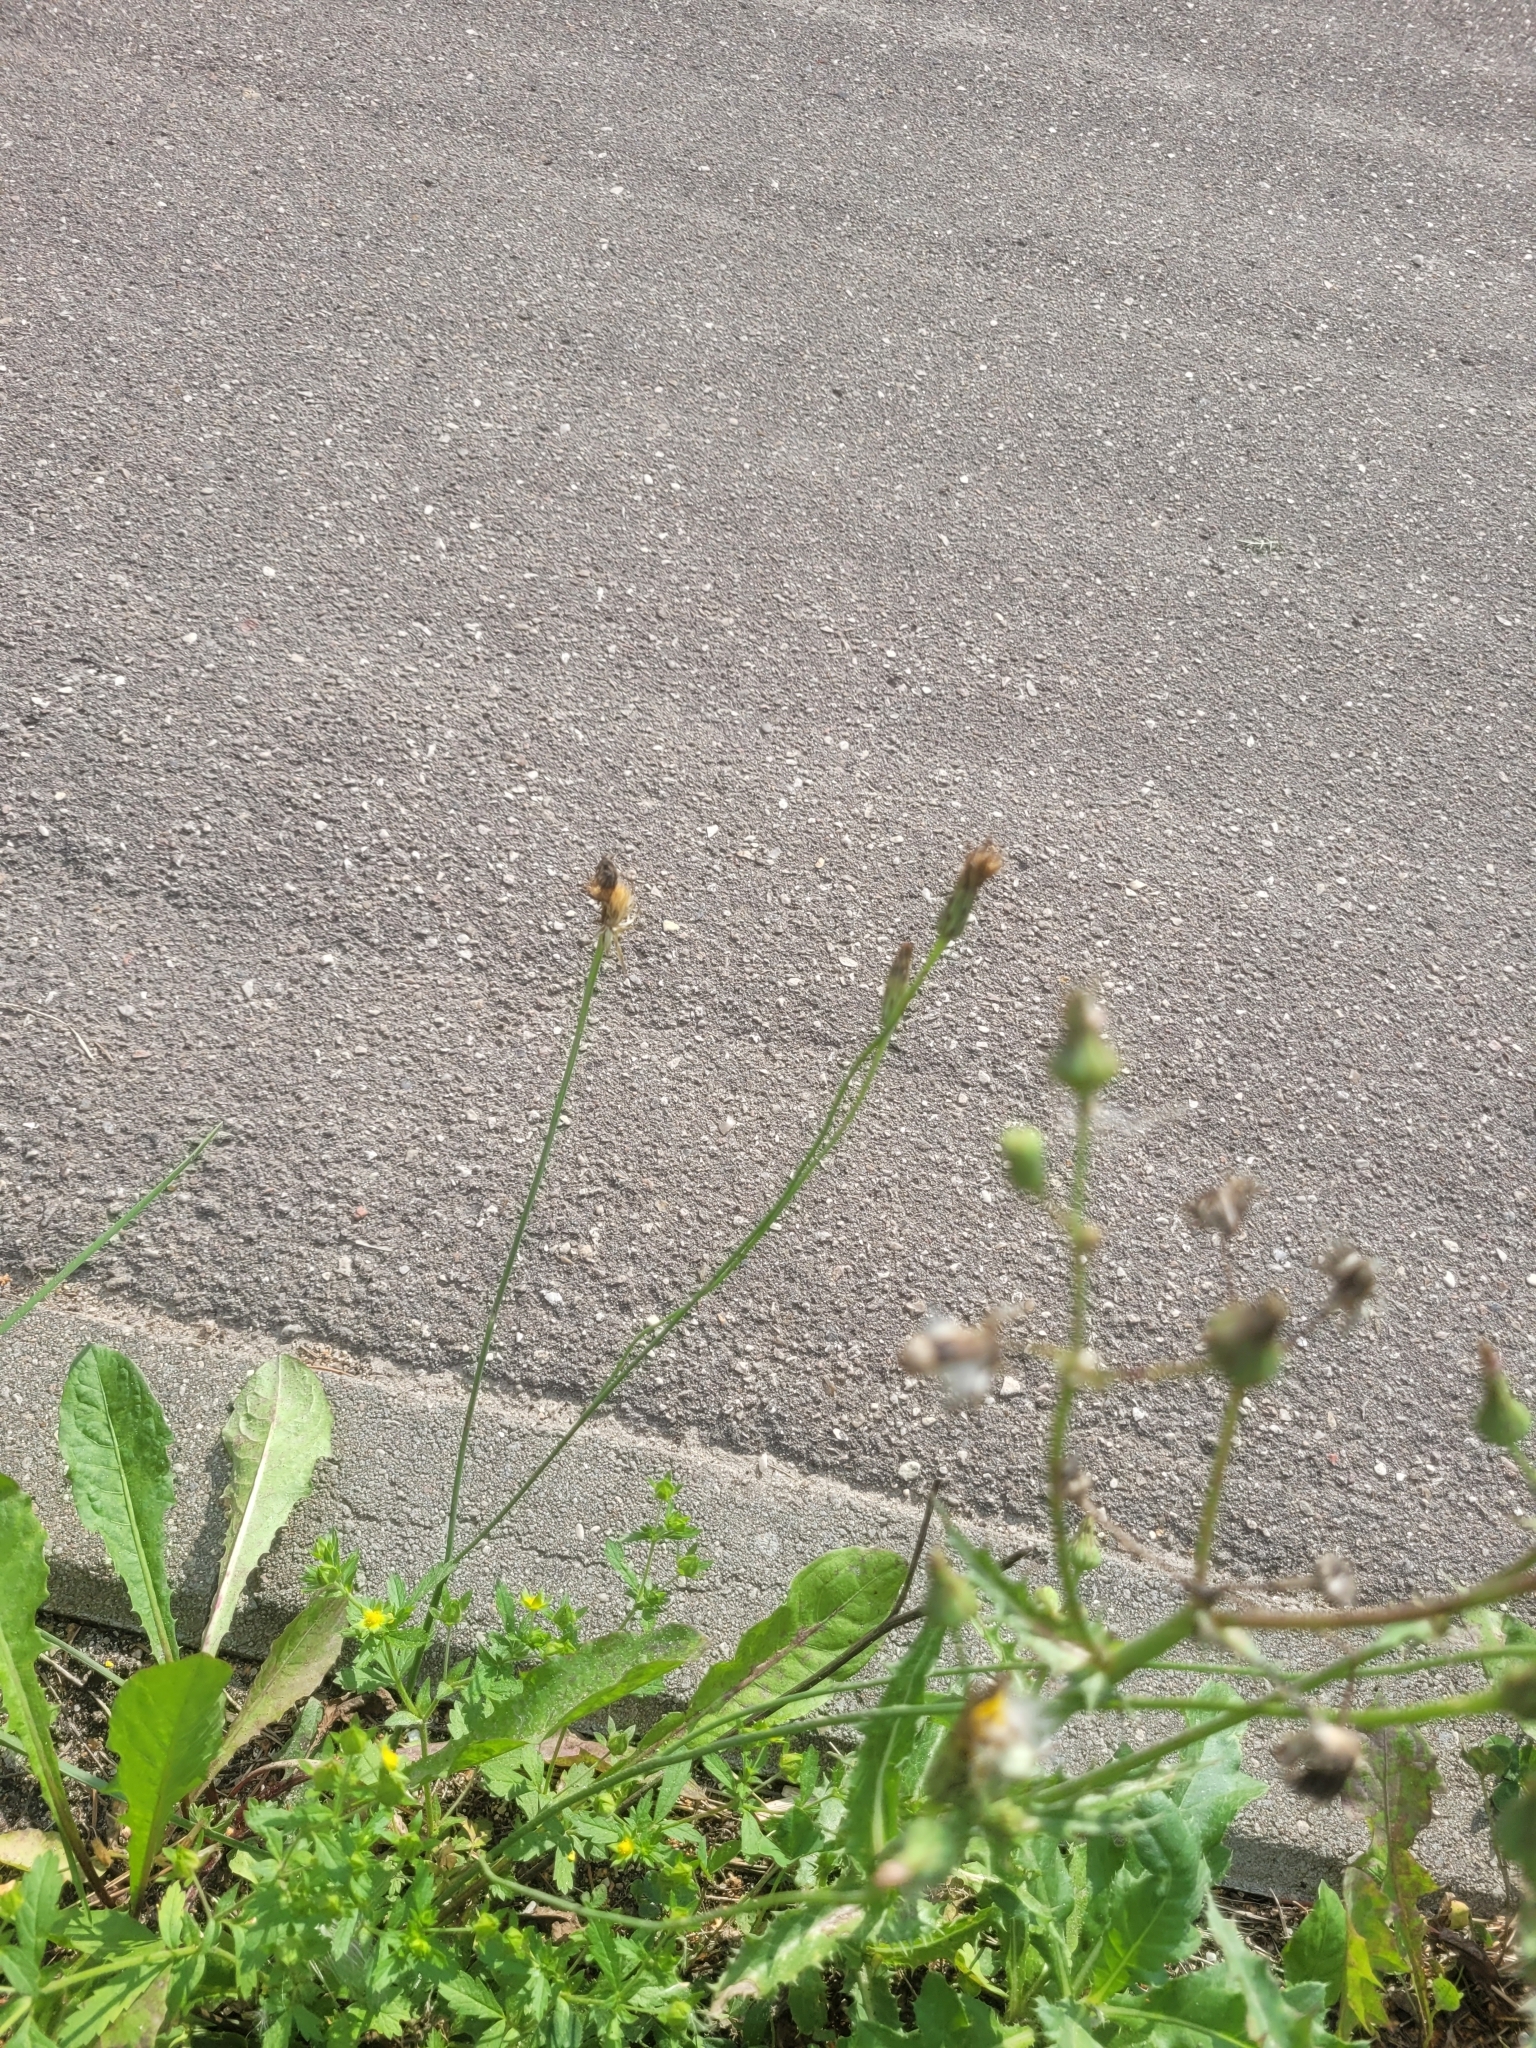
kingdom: Plantae
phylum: Tracheophyta
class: Magnoliopsida
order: Asterales
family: Asteraceae
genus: Hypochaeris
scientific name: Hypochaeris radicata
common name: Flatweed
